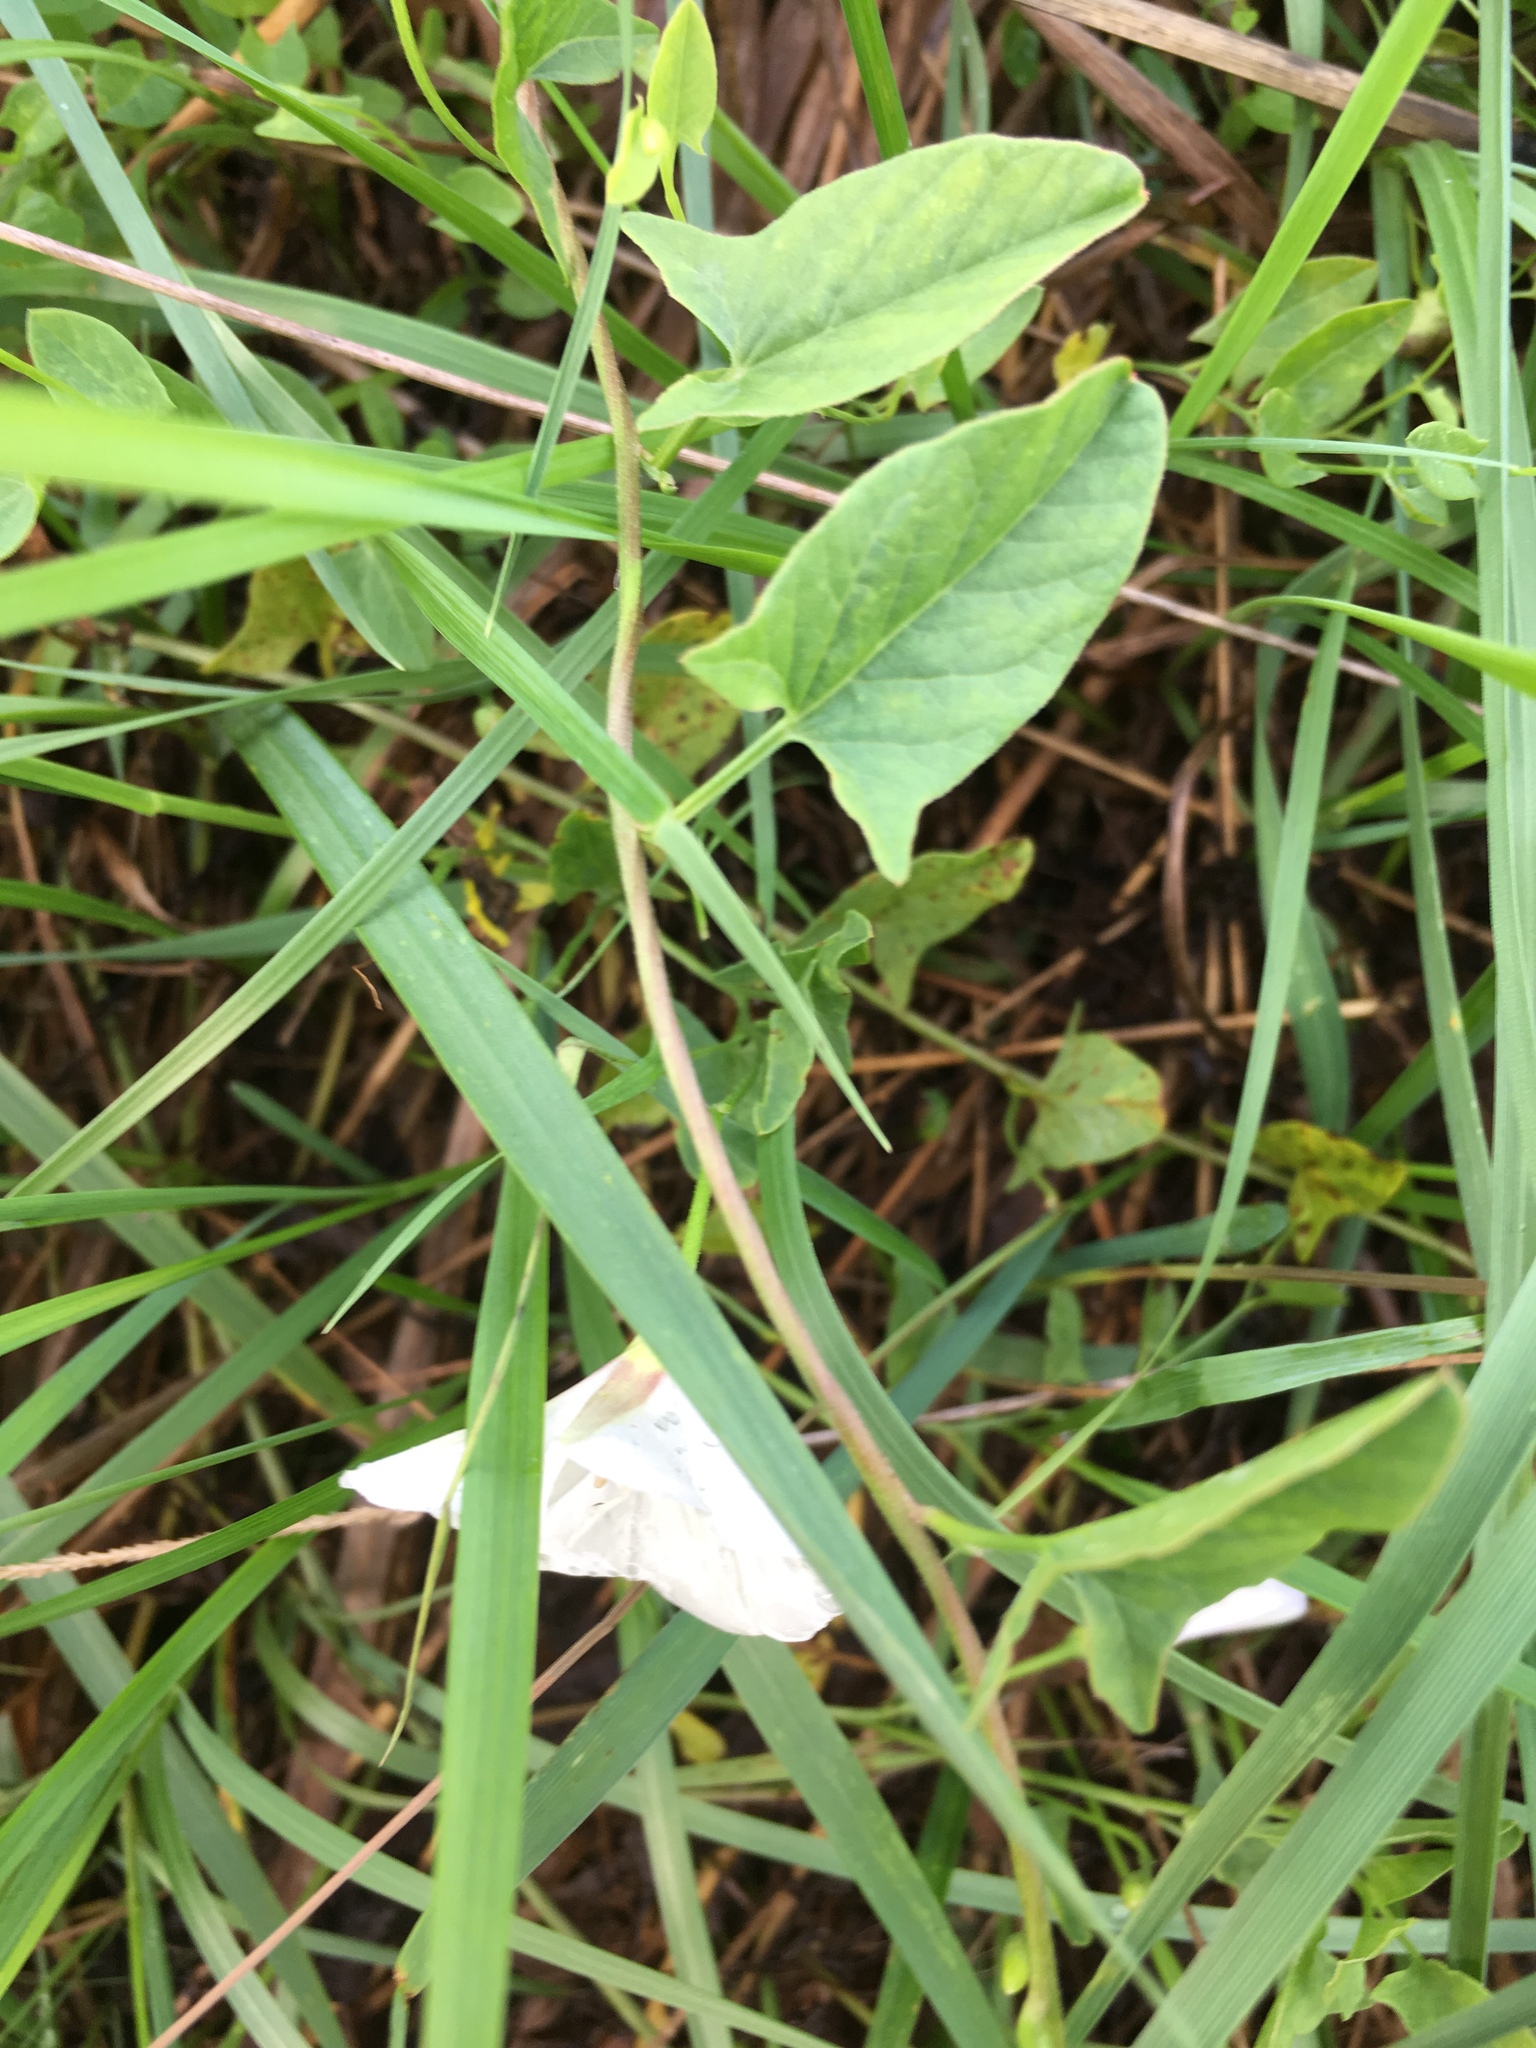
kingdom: Plantae
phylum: Tracheophyta
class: Magnoliopsida
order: Solanales
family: Convolvulaceae
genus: Convolvulus
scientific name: Convolvulus arvensis
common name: Field bindweed
